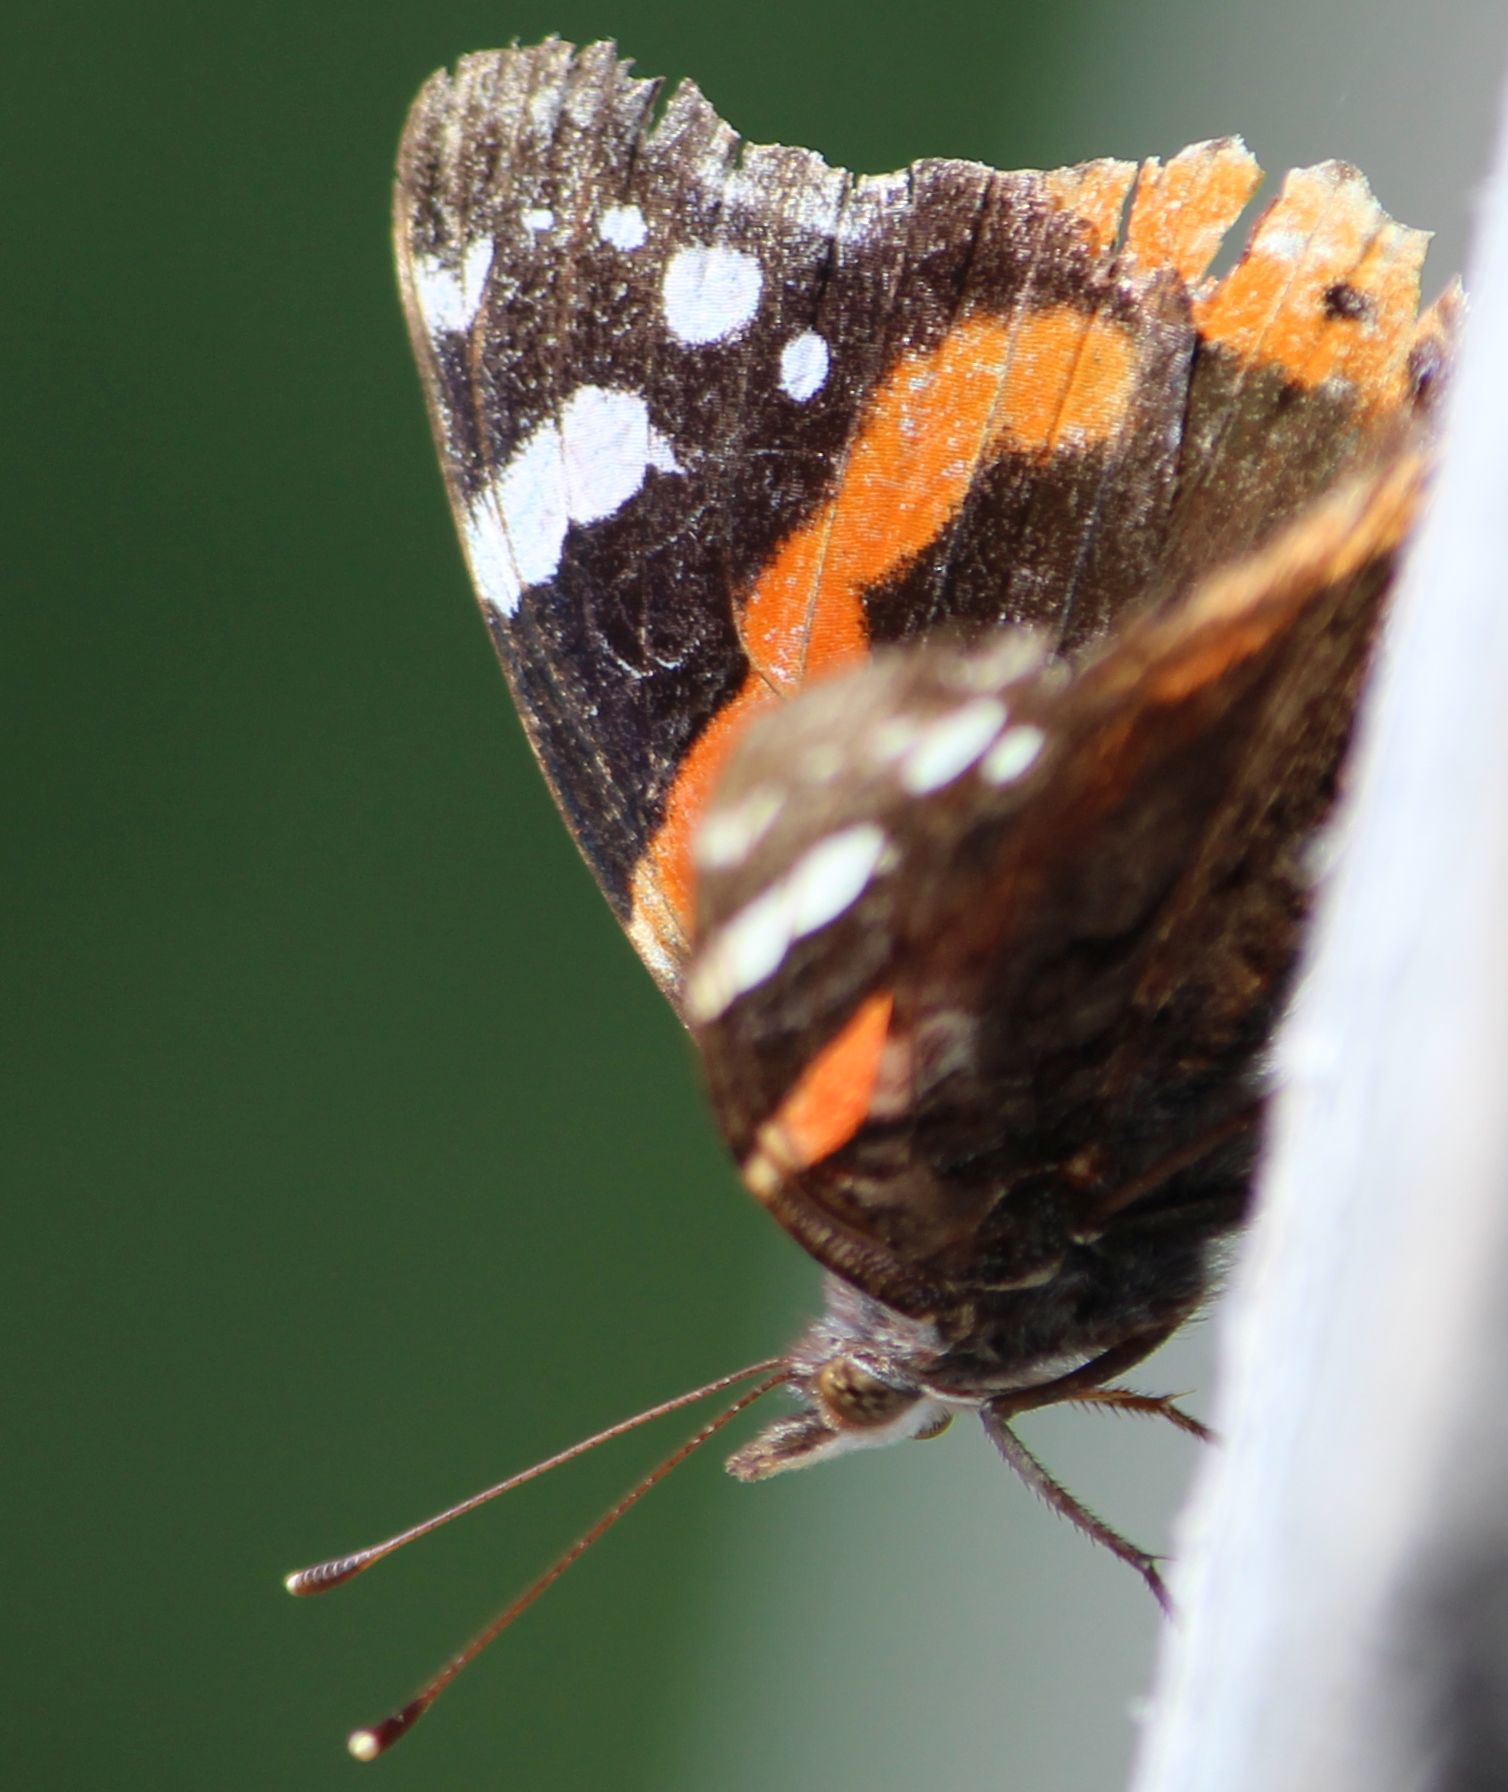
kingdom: Animalia
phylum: Arthropoda
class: Insecta
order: Lepidoptera
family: Nymphalidae
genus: Vanessa
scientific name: Vanessa atalanta
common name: Red admiral
